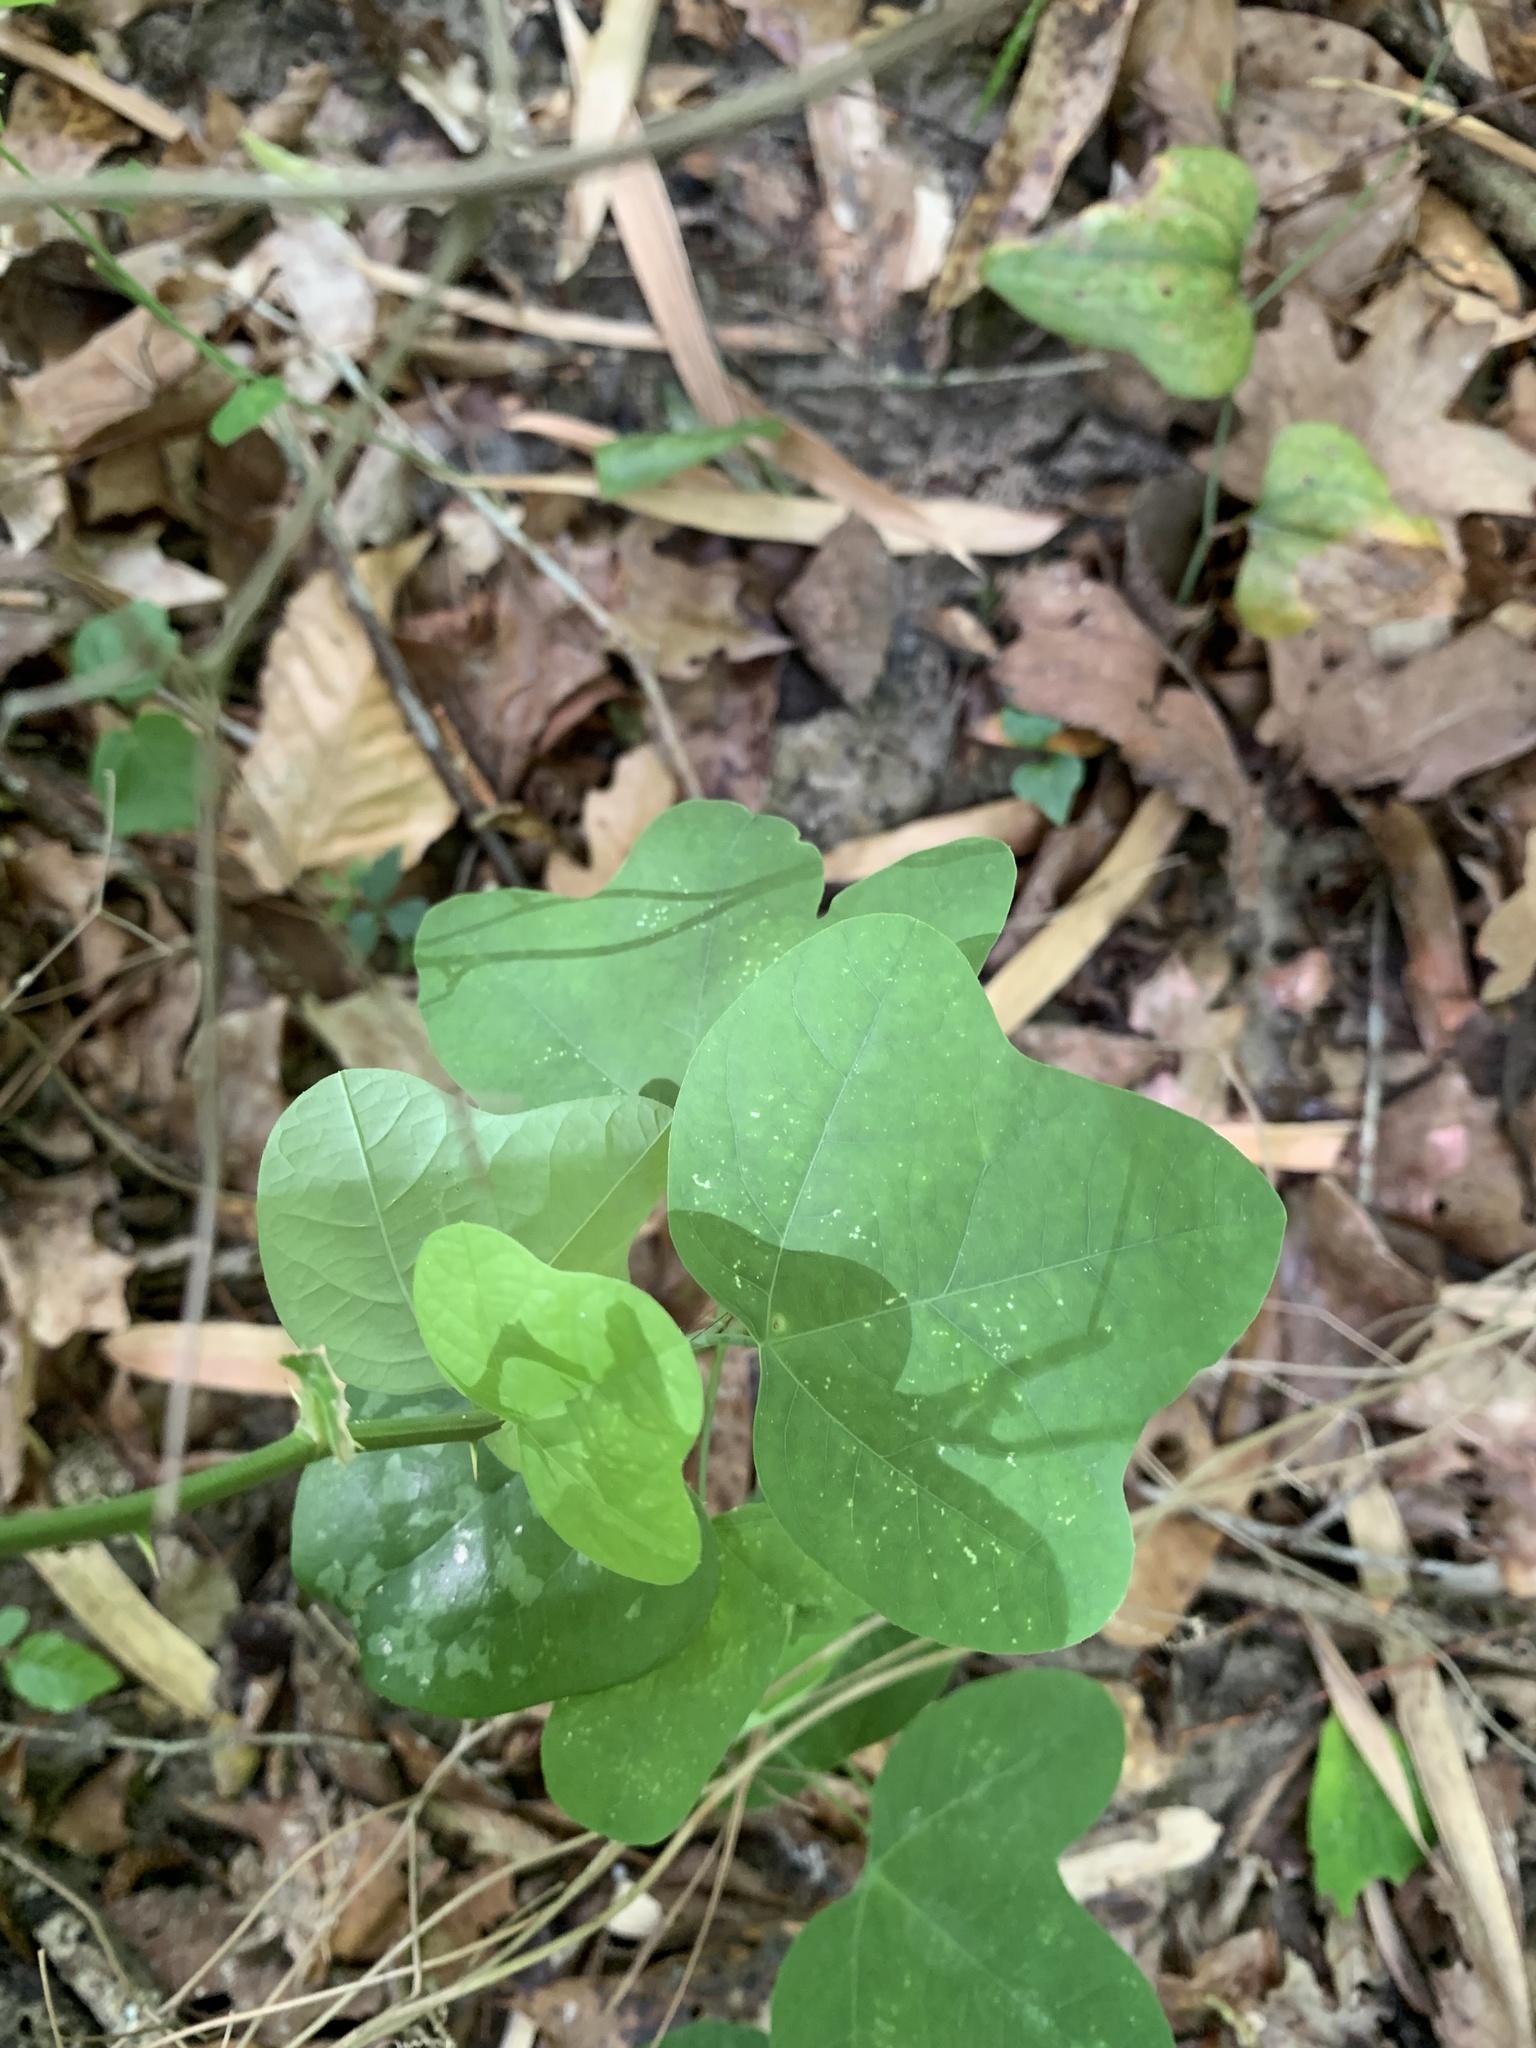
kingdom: Plantae
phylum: Tracheophyta
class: Magnoliopsida
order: Malpighiales
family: Passifloraceae
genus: Passiflora
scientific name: Passiflora lutea
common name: Yellow passionflower
